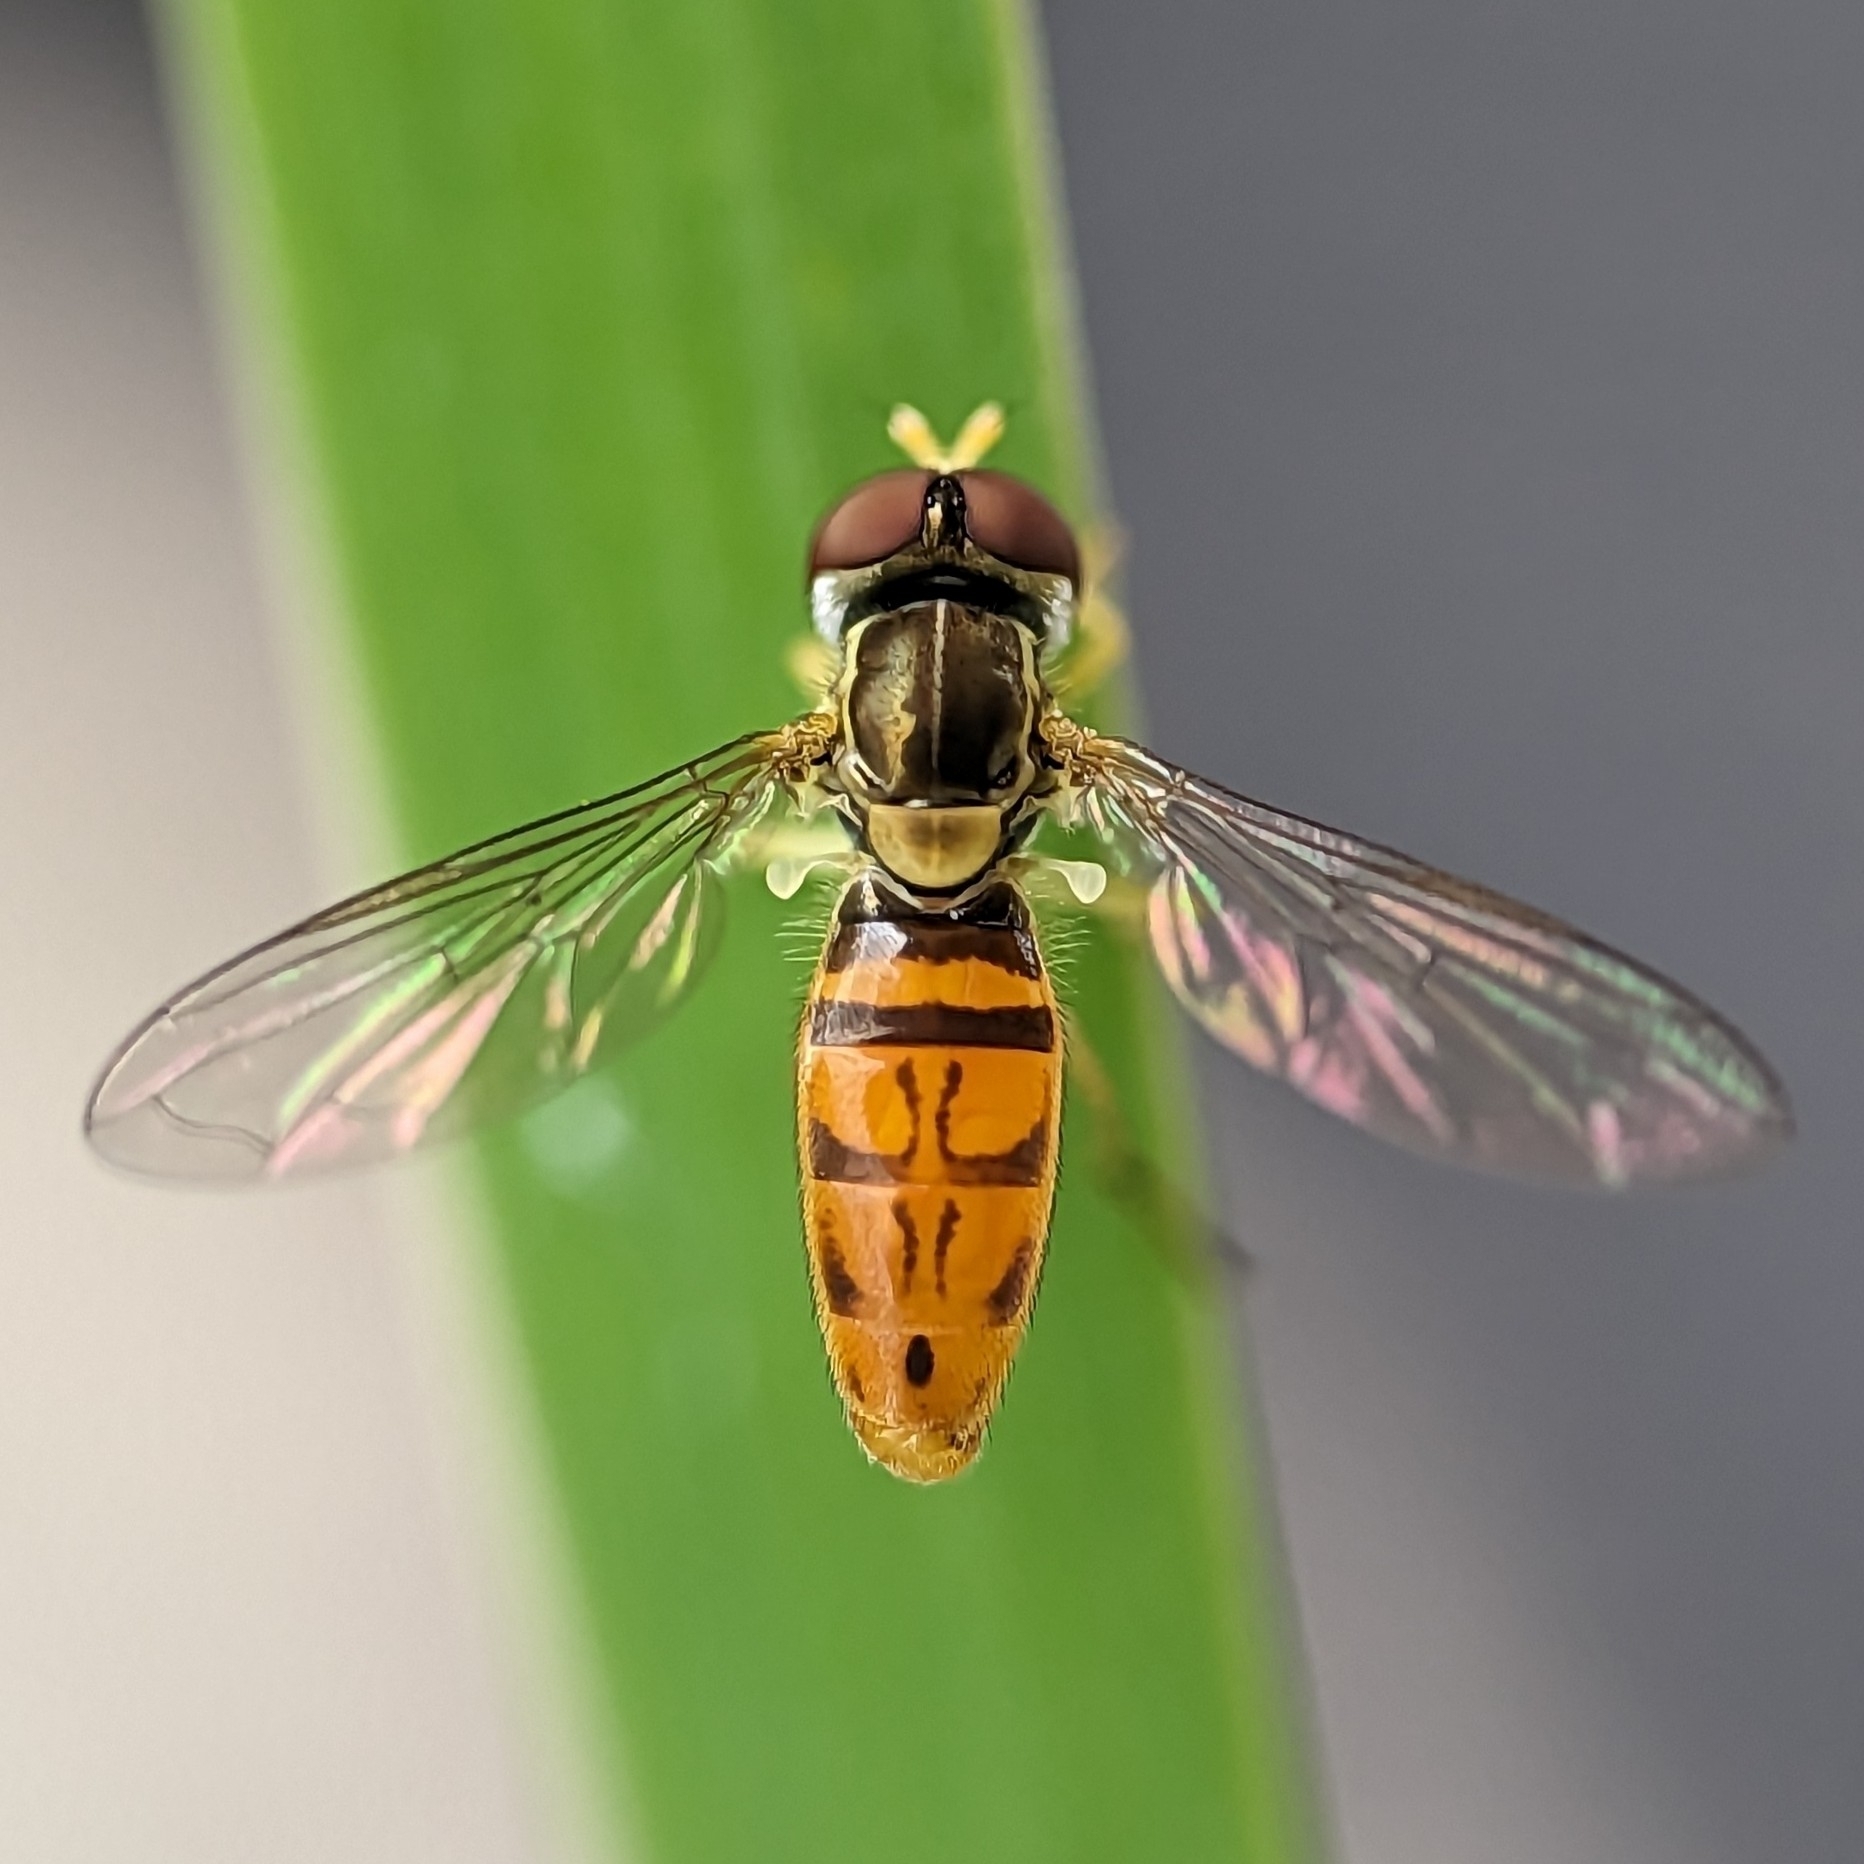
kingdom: Animalia
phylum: Arthropoda
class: Insecta
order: Diptera
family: Syrphidae
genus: Toxomerus
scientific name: Toxomerus marginatus
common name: Syrphid fly
